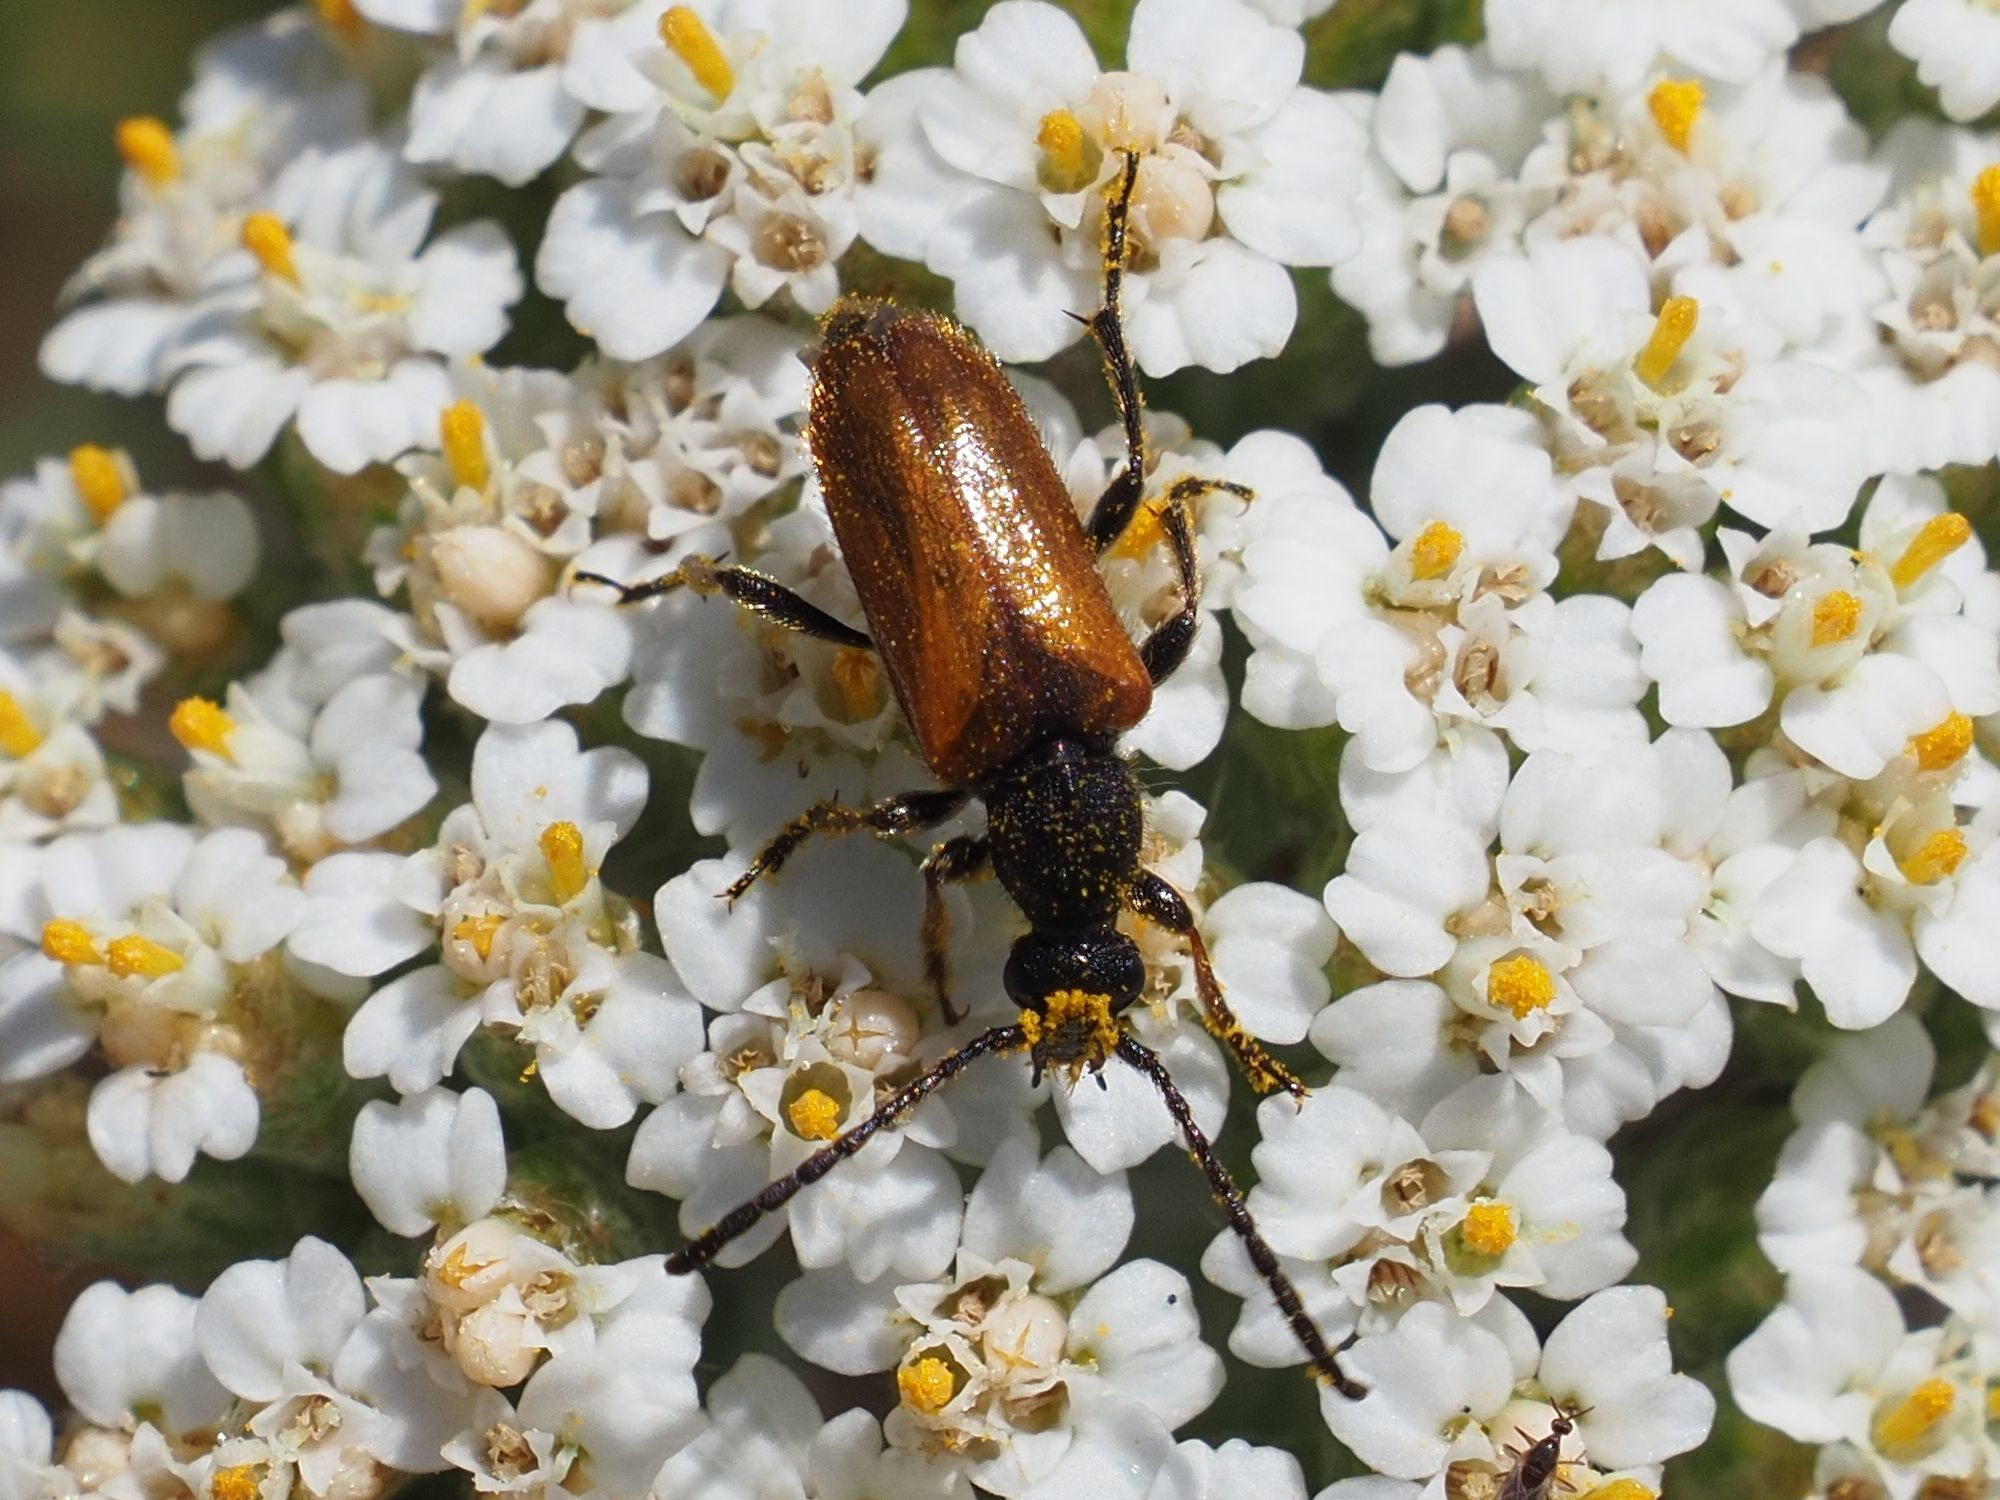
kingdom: Animalia
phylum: Arthropoda
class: Insecta
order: Coleoptera
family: Cerambycidae
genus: Pseudovadonia
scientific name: Pseudovadonia livida
